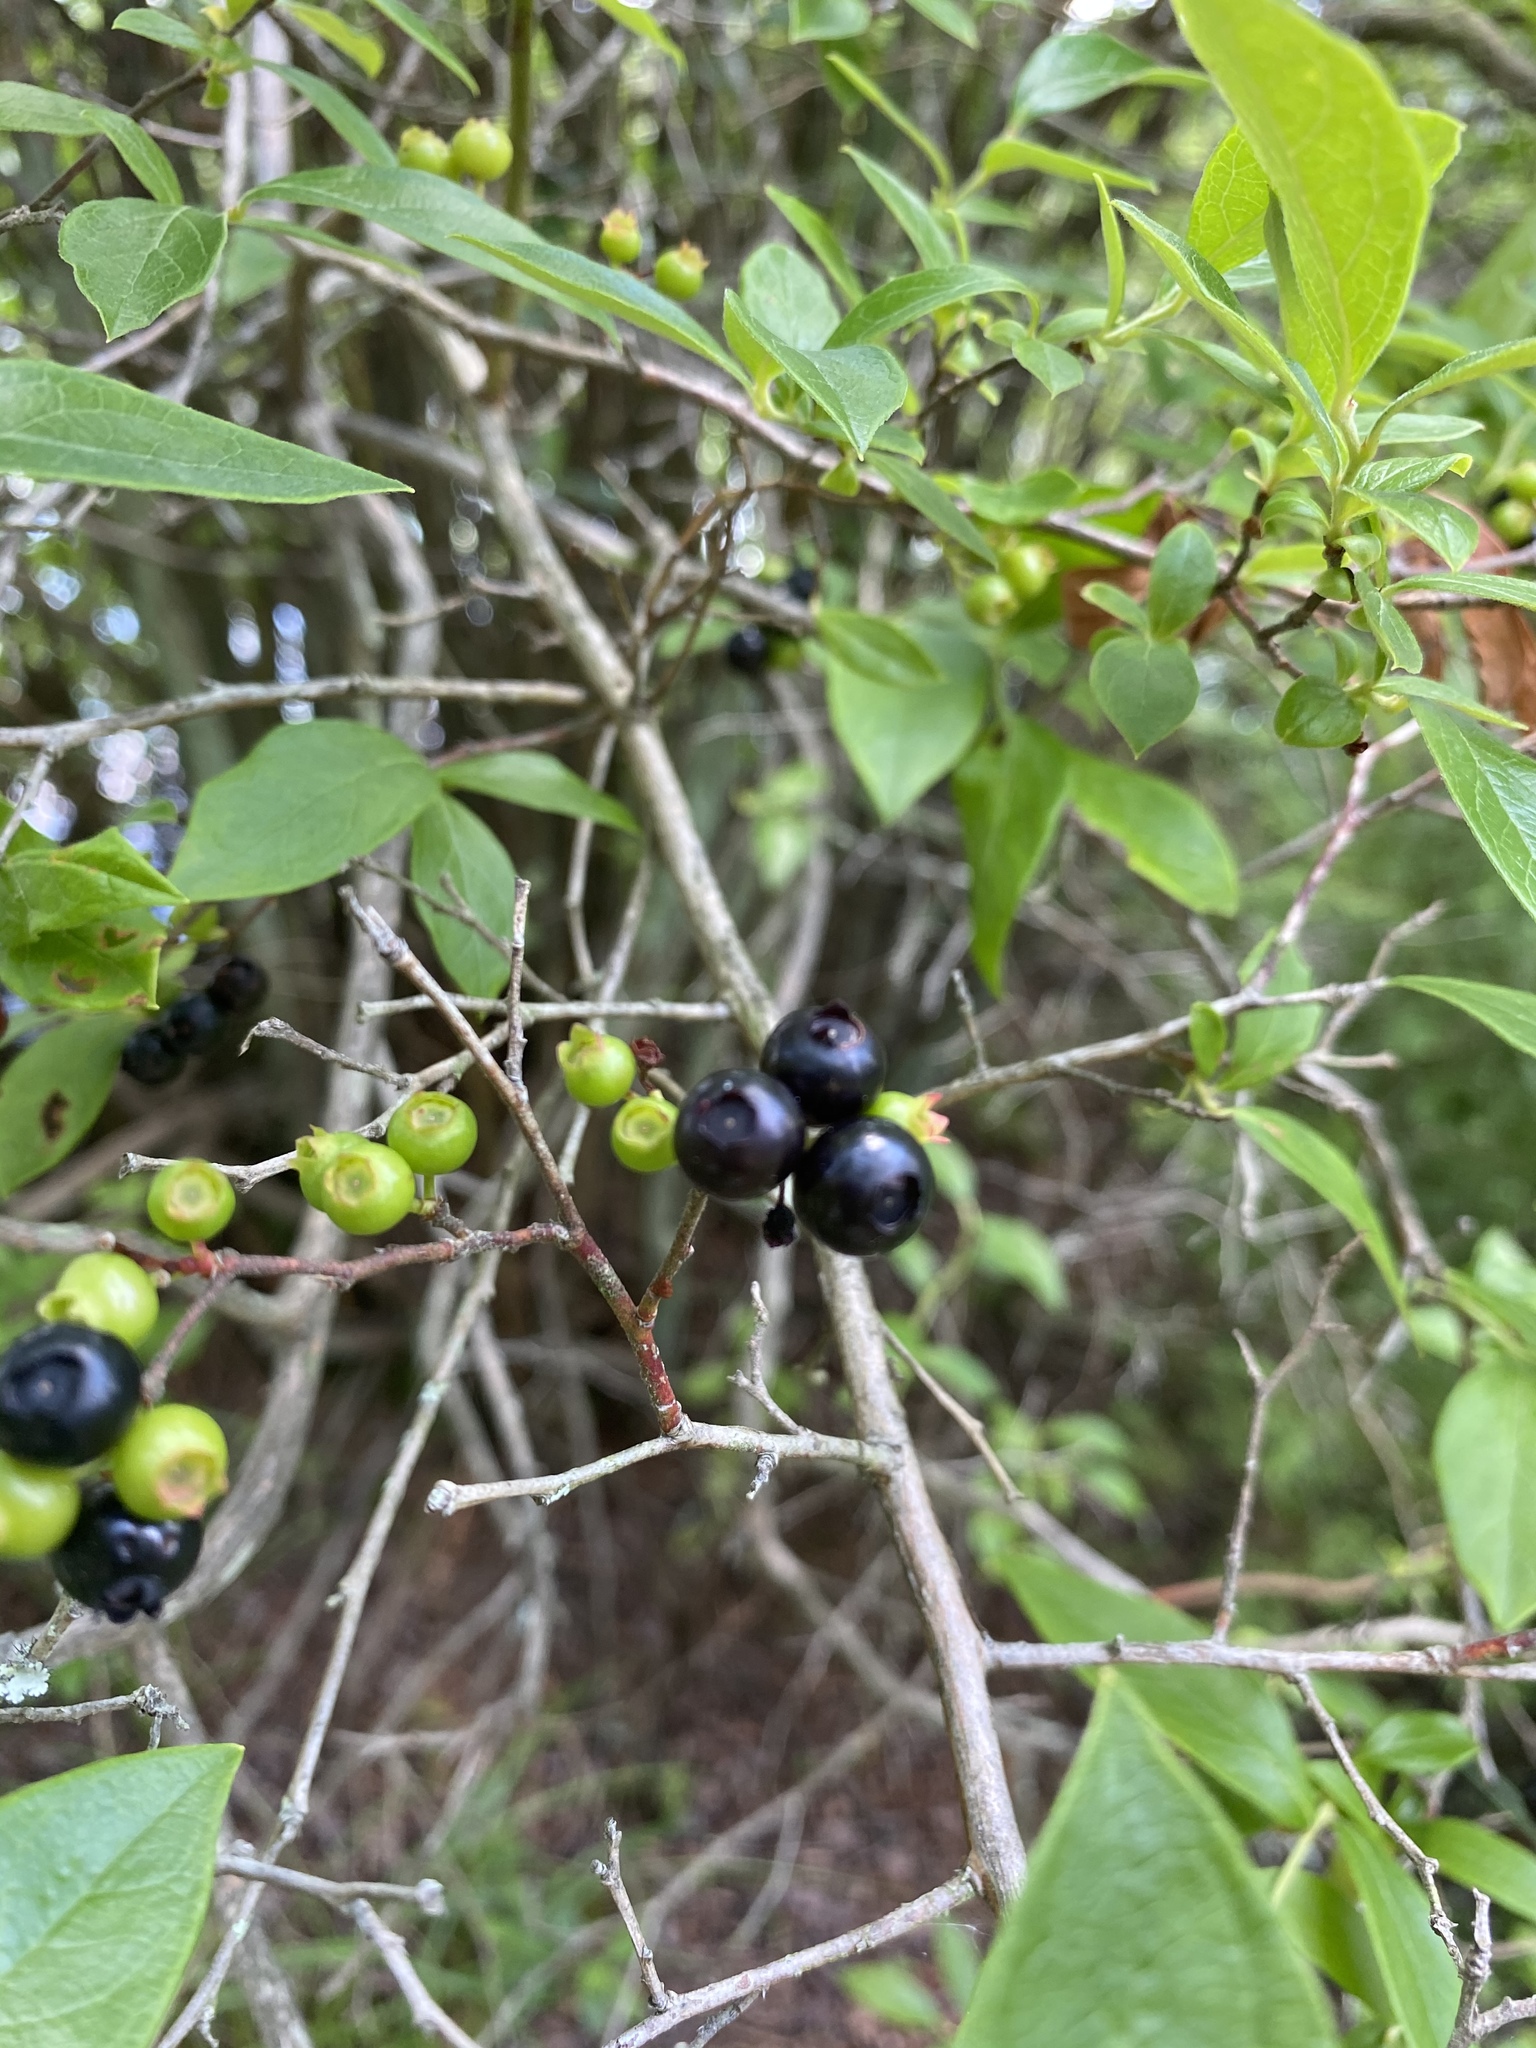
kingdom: Plantae
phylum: Tracheophyta
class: Magnoliopsida
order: Ericales
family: Ericaceae
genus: Vaccinium
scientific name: Vaccinium corymbosum
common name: Blueberry
